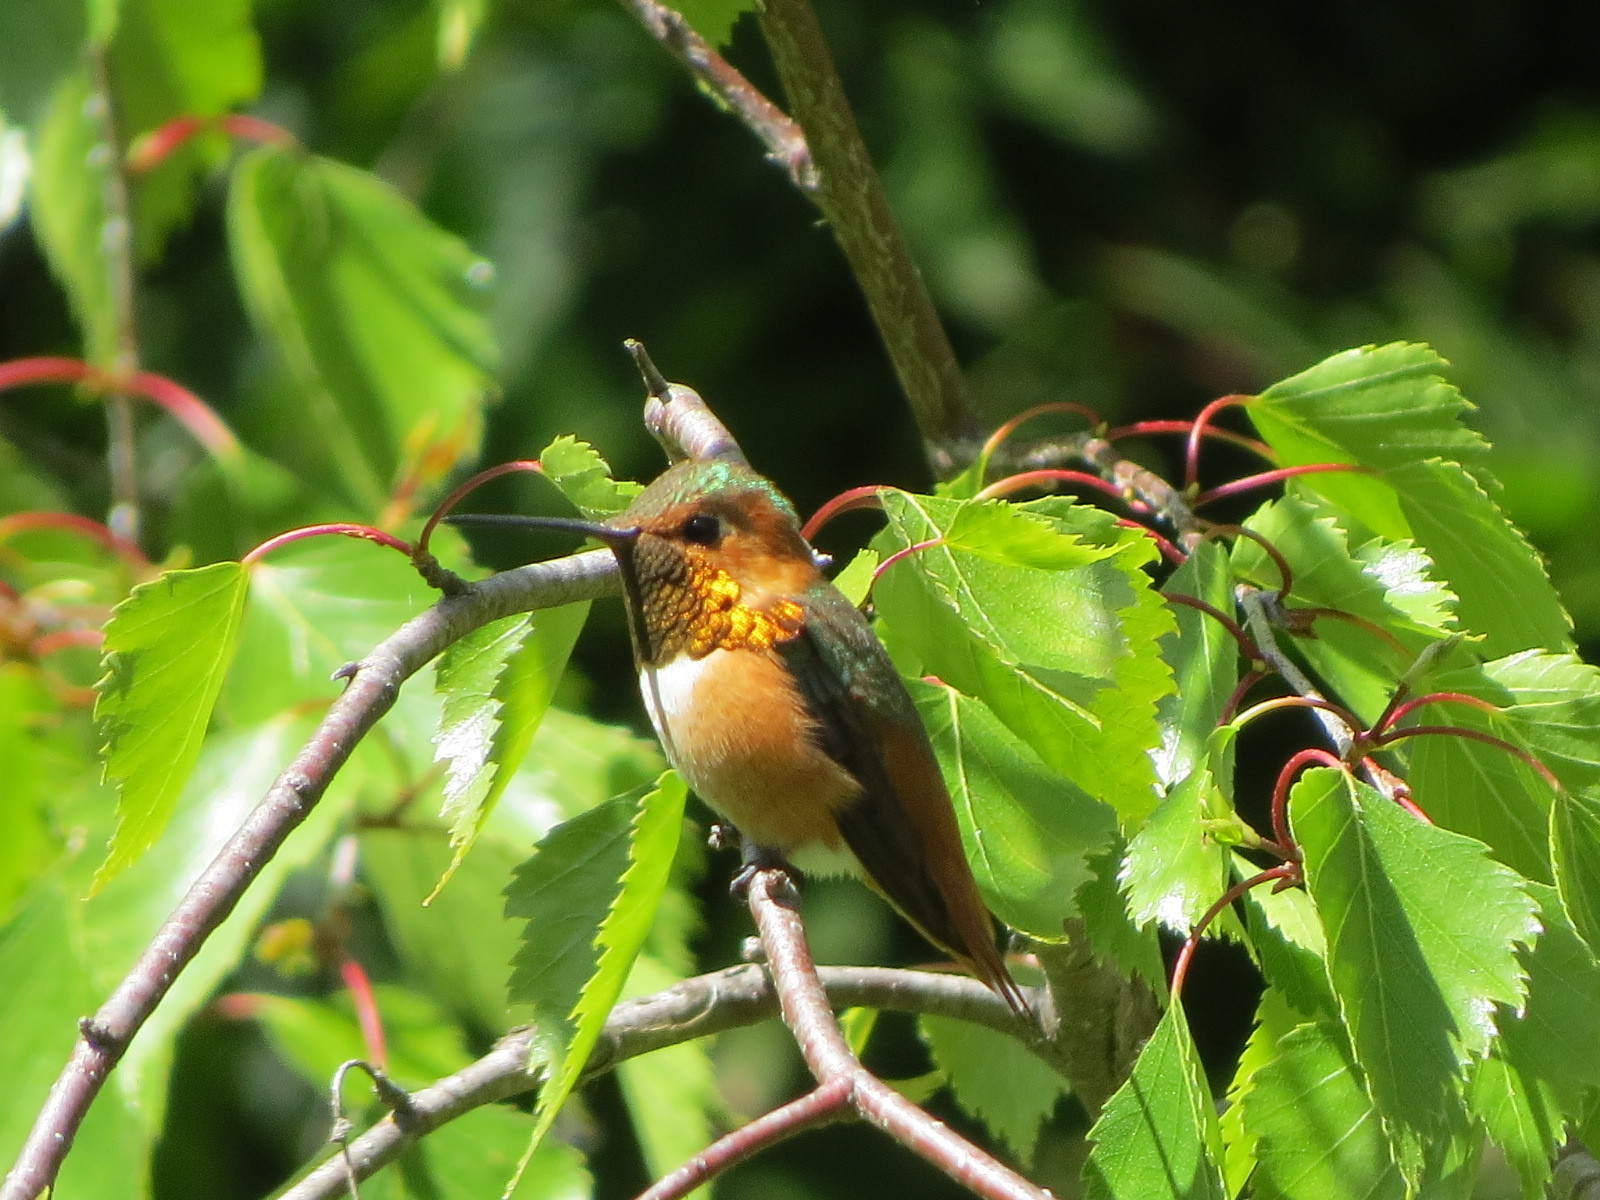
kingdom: Animalia
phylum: Chordata
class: Aves
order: Apodiformes
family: Trochilidae
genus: Selasphorus
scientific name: Selasphorus sasin
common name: Allen's hummingbird
